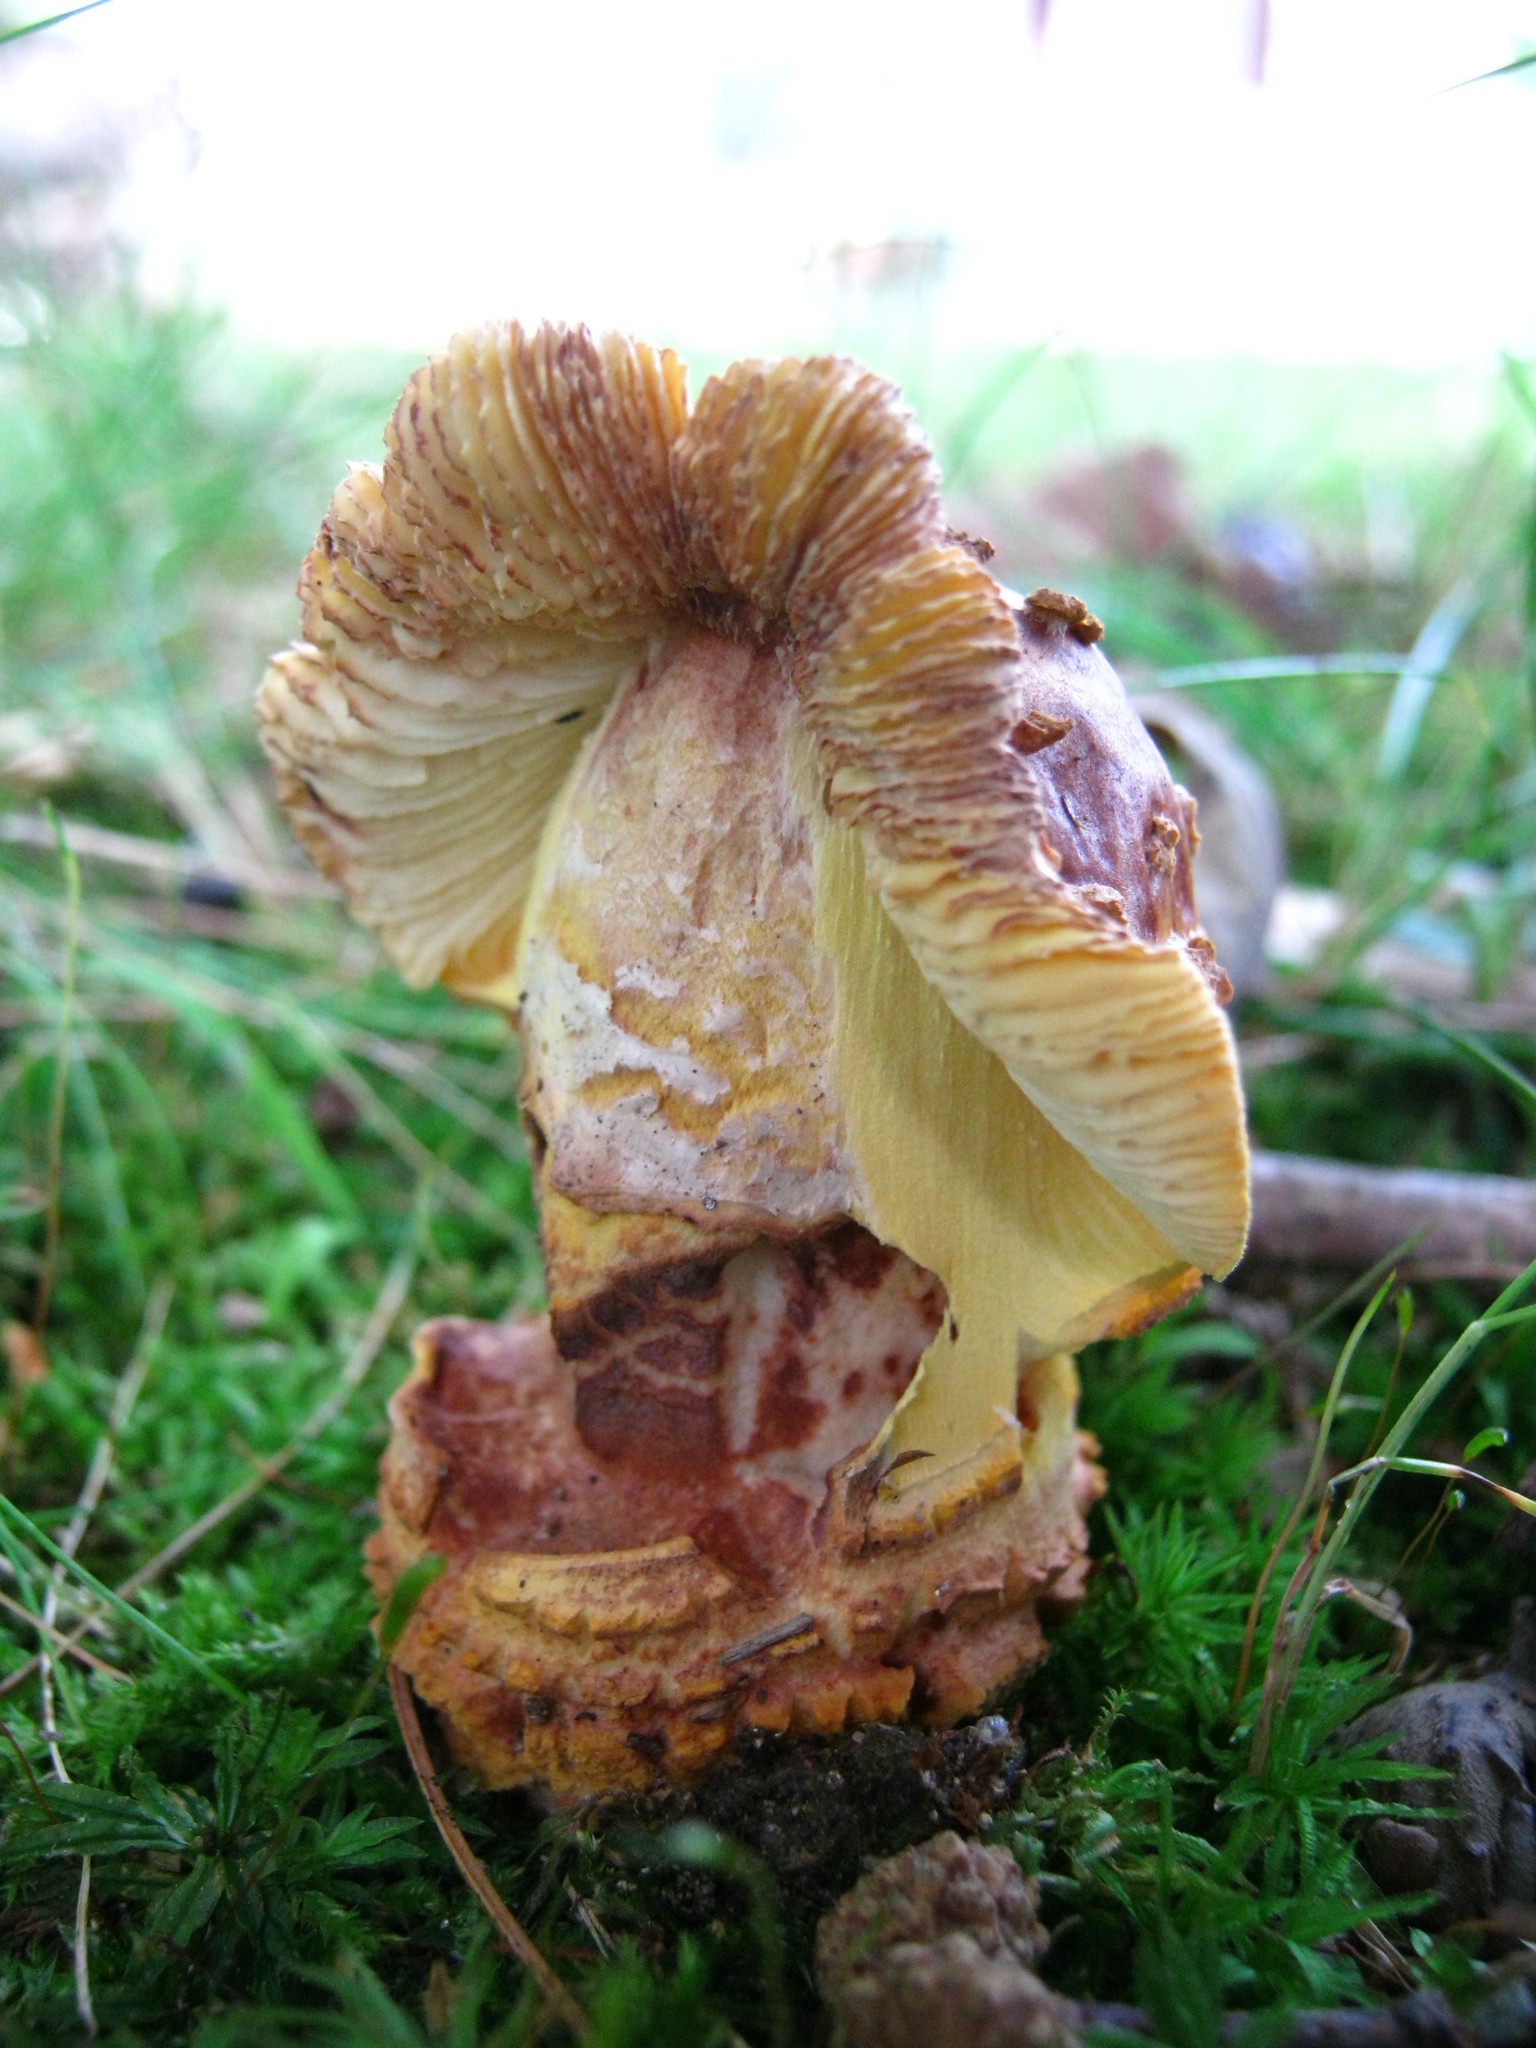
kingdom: Fungi
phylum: Basidiomycota
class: Agaricomycetes
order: Agaricales
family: Amanitaceae
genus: Amanita
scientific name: Amanita flavorubens
